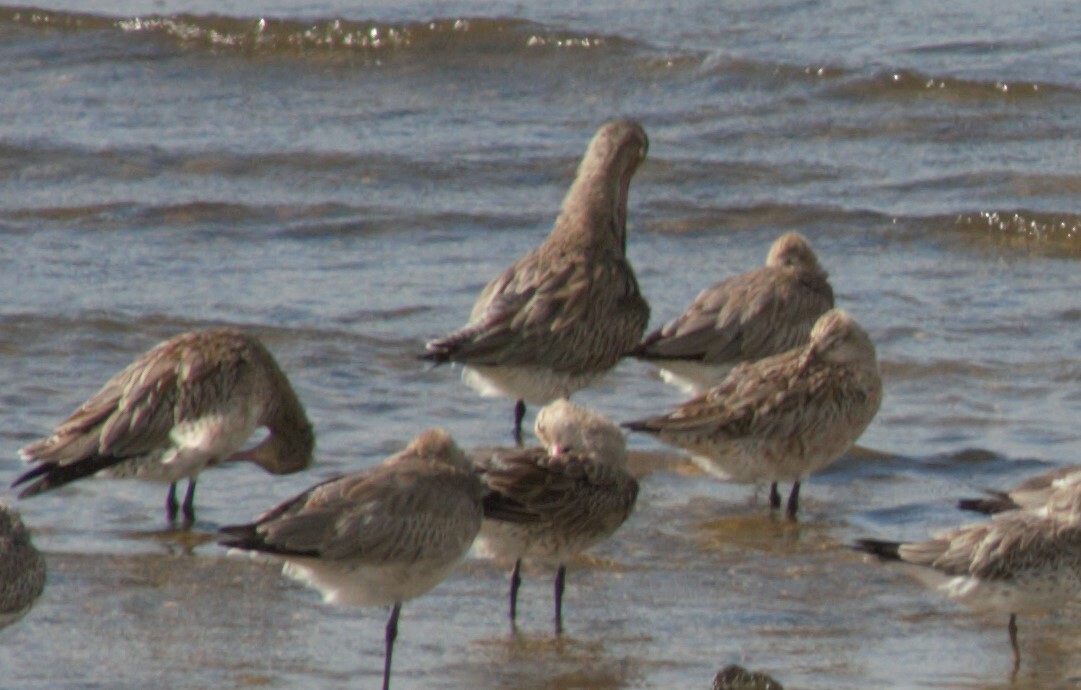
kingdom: Animalia
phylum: Chordata
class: Aves
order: Charadriiformes
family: Scolopacidae
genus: Limosa
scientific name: Limosa lapponica
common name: Bar-tailed godwit
